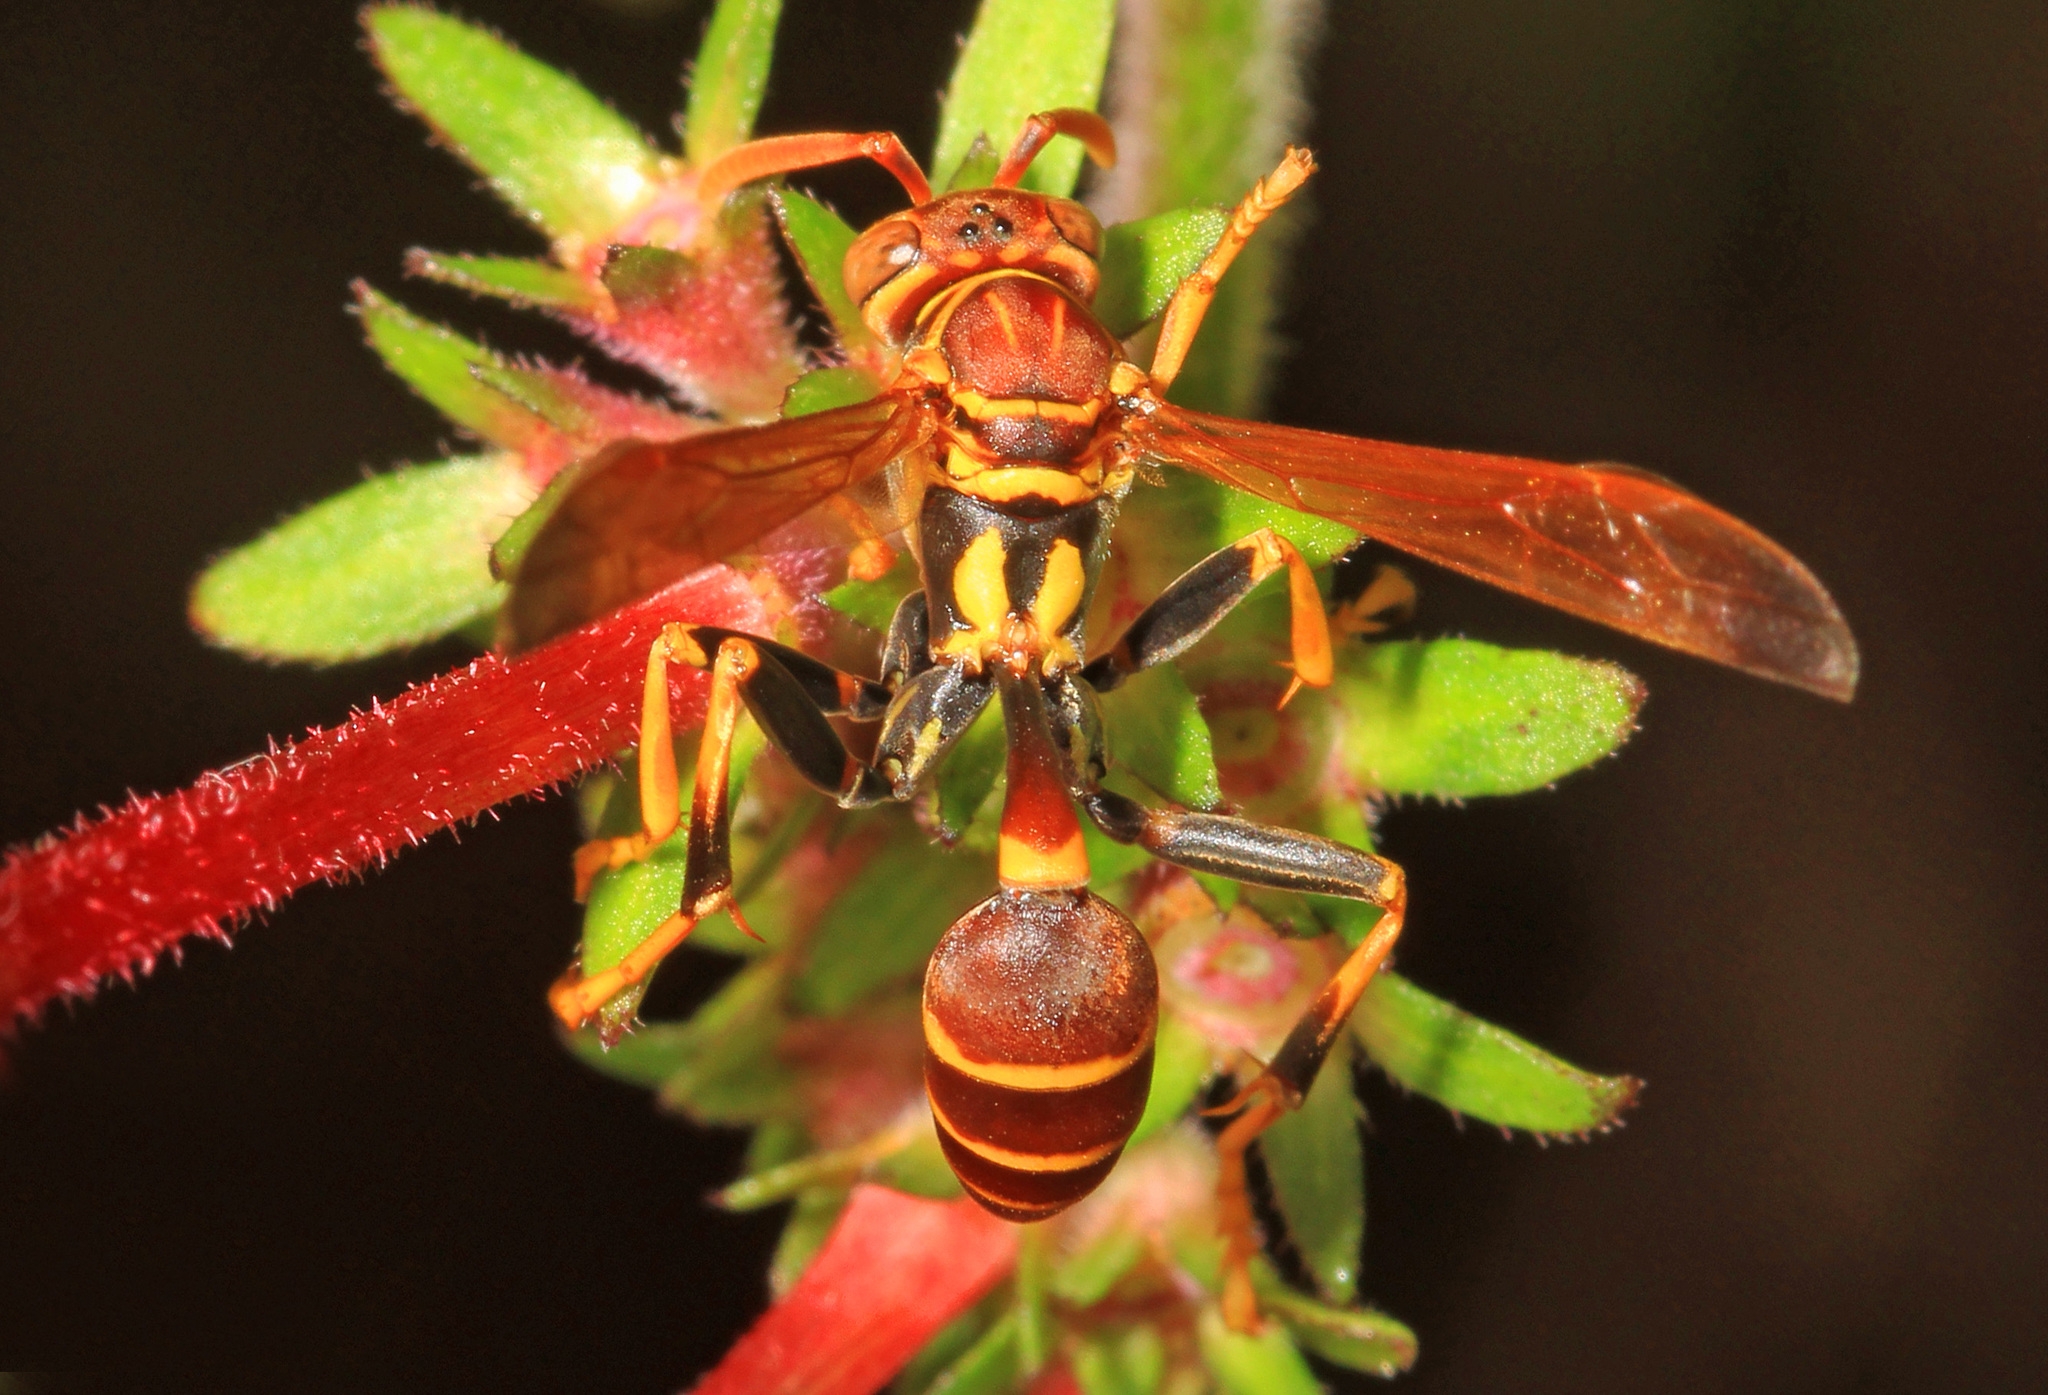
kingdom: Animalia
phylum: Arthropoda
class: Insecta
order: Hymenoptera
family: Vespidae
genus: Mischocyttarus
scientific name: Mischocyttarus mexicanus
